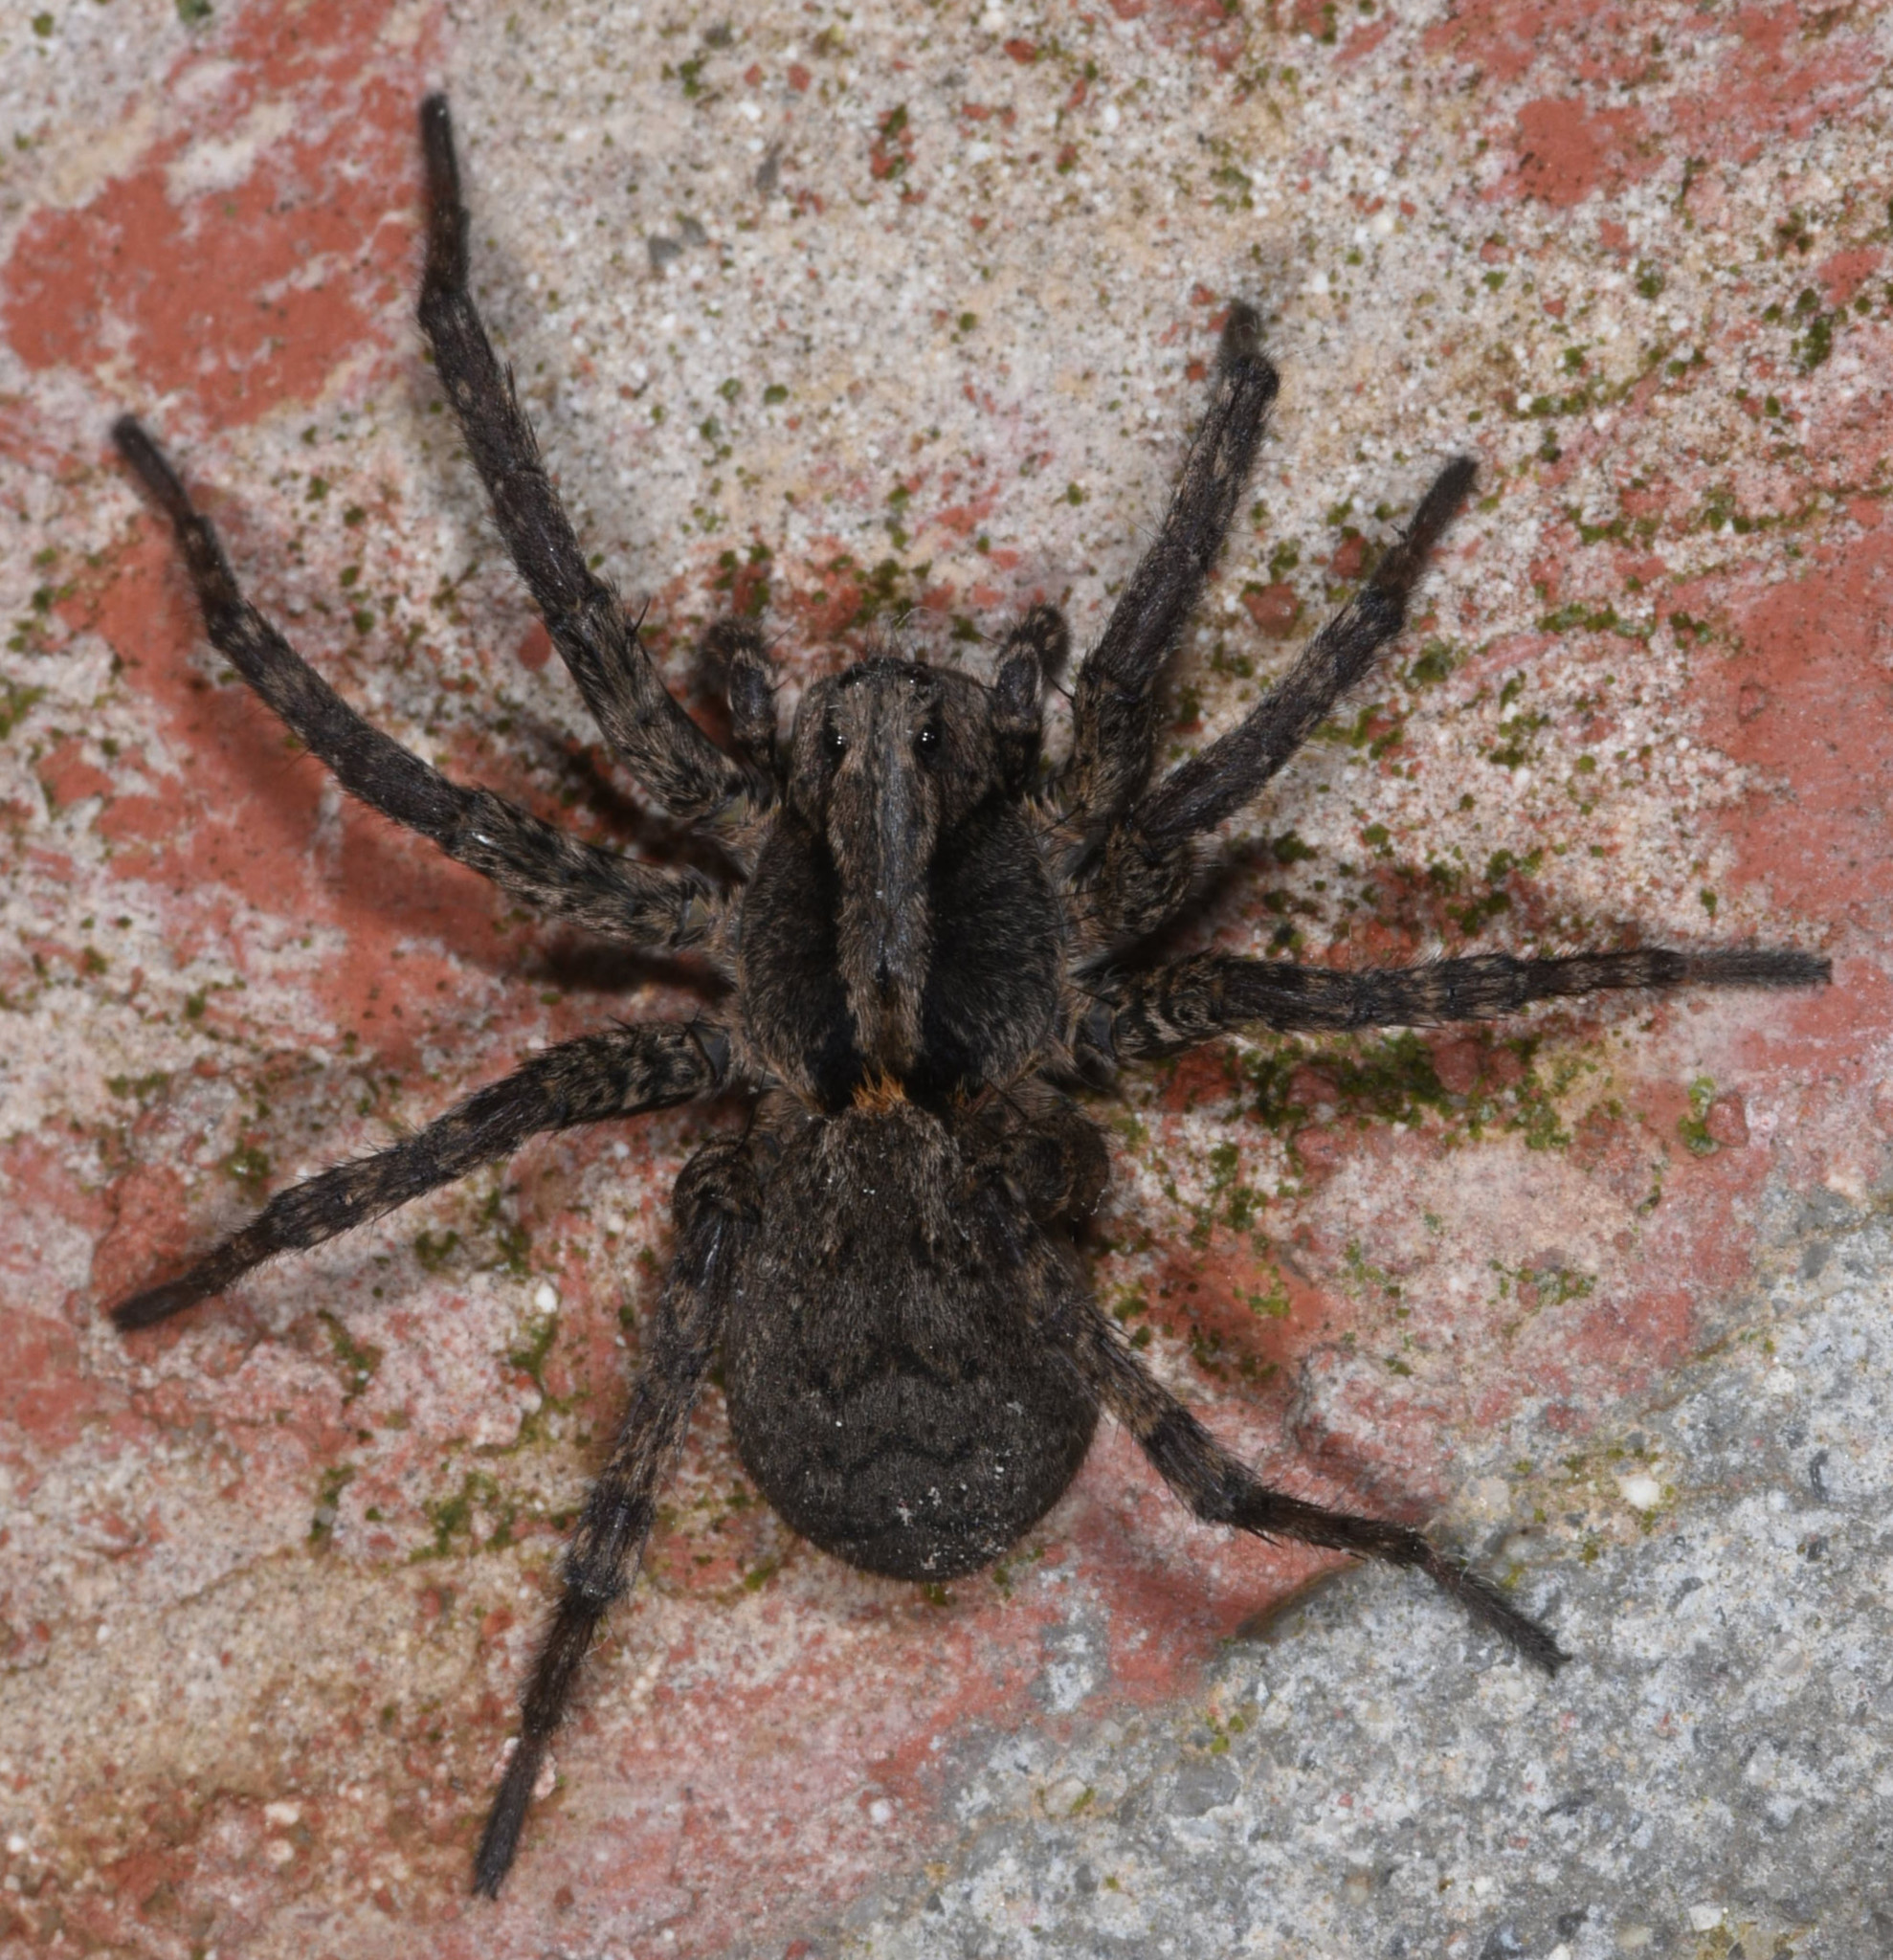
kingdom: Animalia
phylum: Arthropoda
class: Arachnida
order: Araneae
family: Lycosidae
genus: Alopecosa
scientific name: Alopecosa kochi
